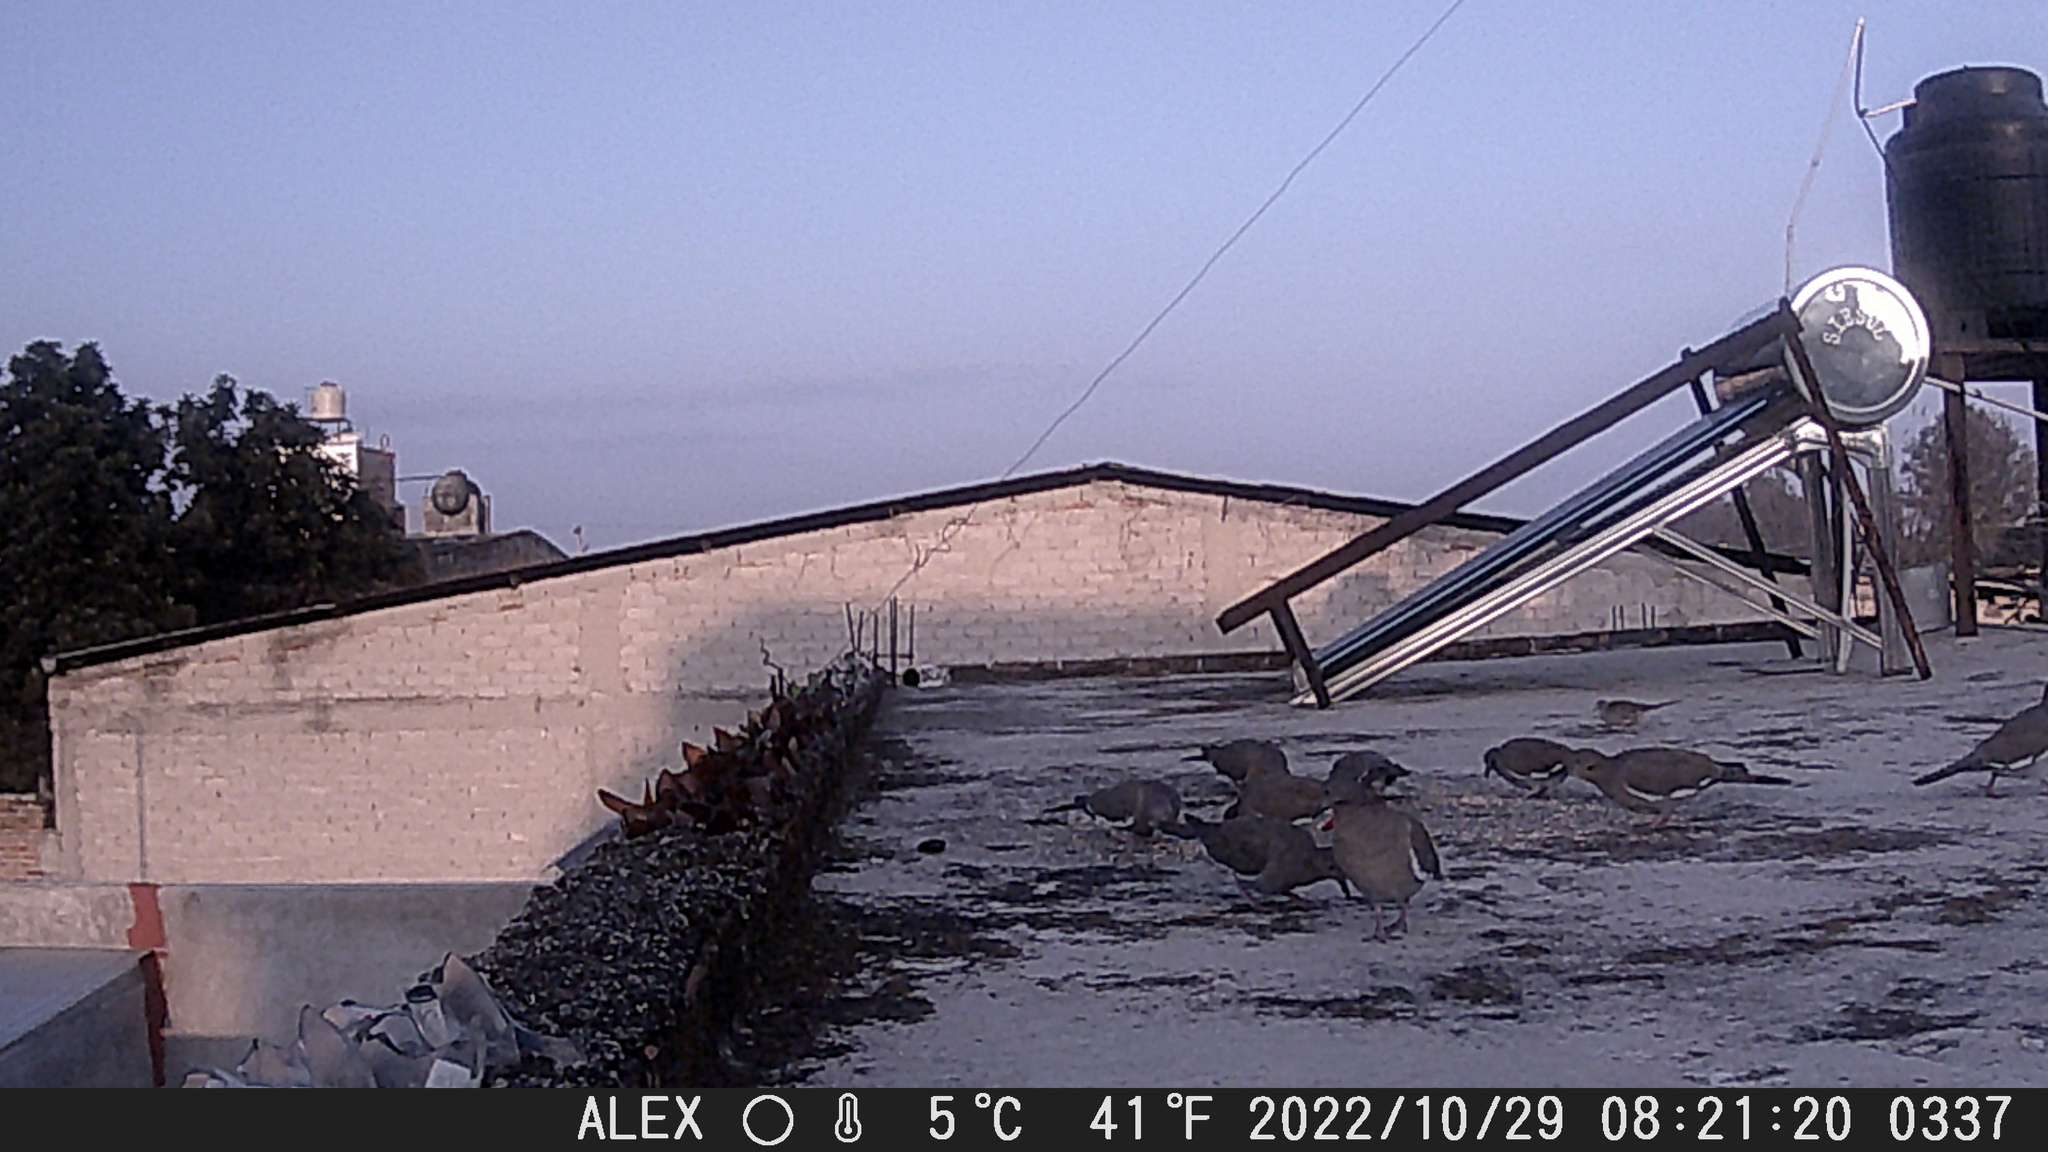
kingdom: Animalia
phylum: Chordata
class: Aves
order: Columbiformes
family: Columbidae
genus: Zenaida
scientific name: Zenaida asiatica
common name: White-winged dove
